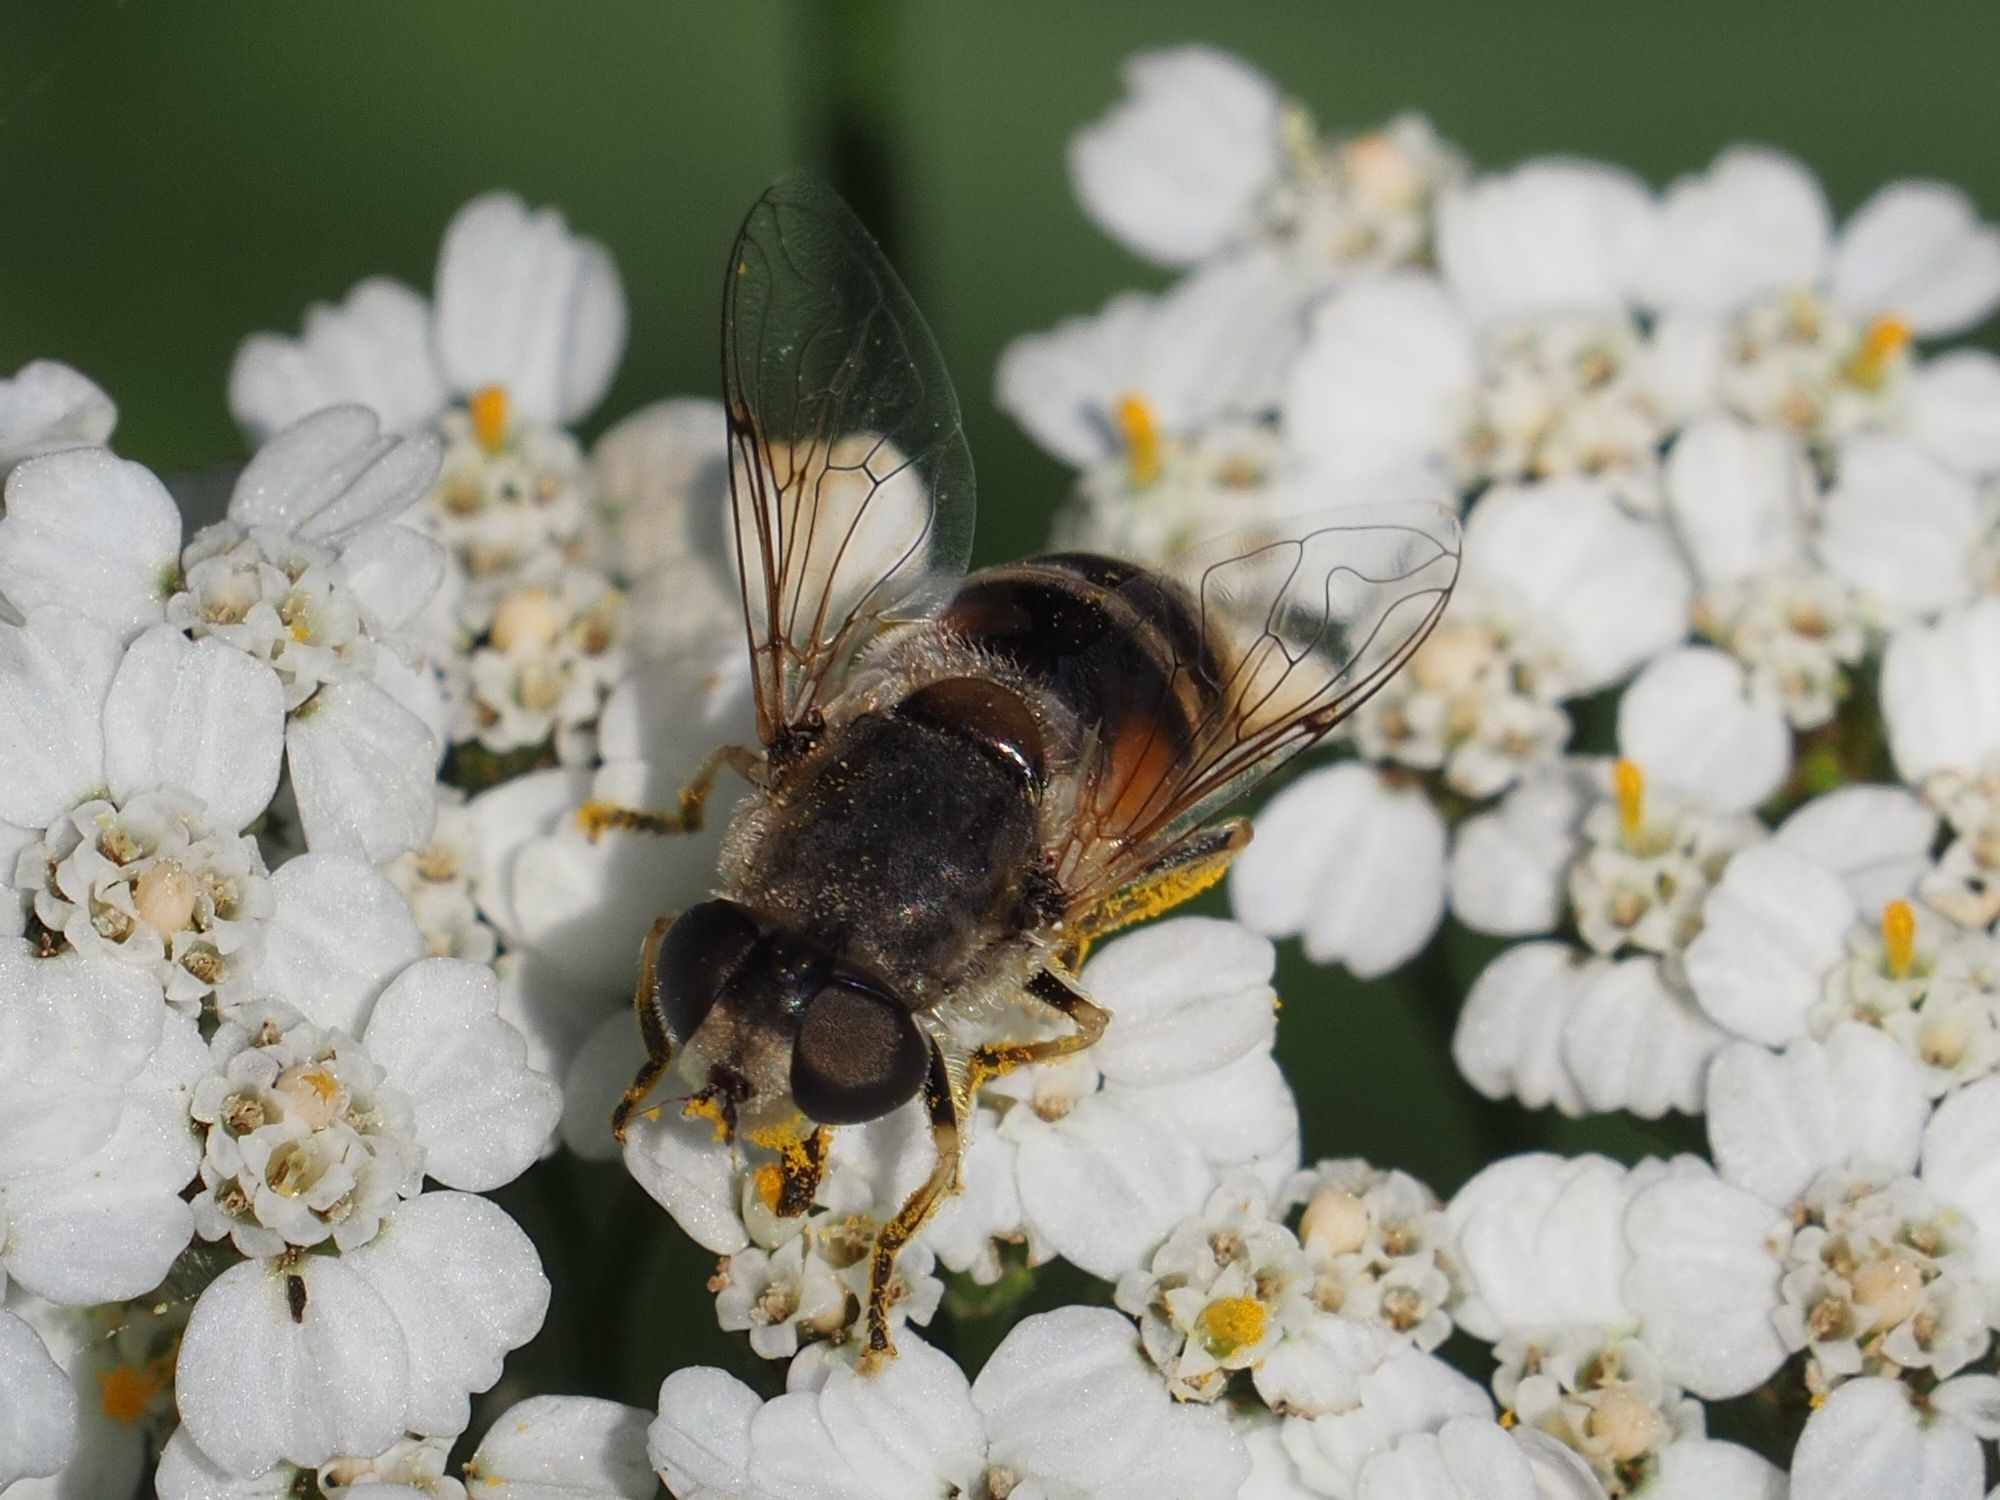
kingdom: Animalia
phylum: Arthropoda
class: Insecta
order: Diptera
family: Syrphidae
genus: Eristalis
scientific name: Eristalis arbustorum
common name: Hover fly
